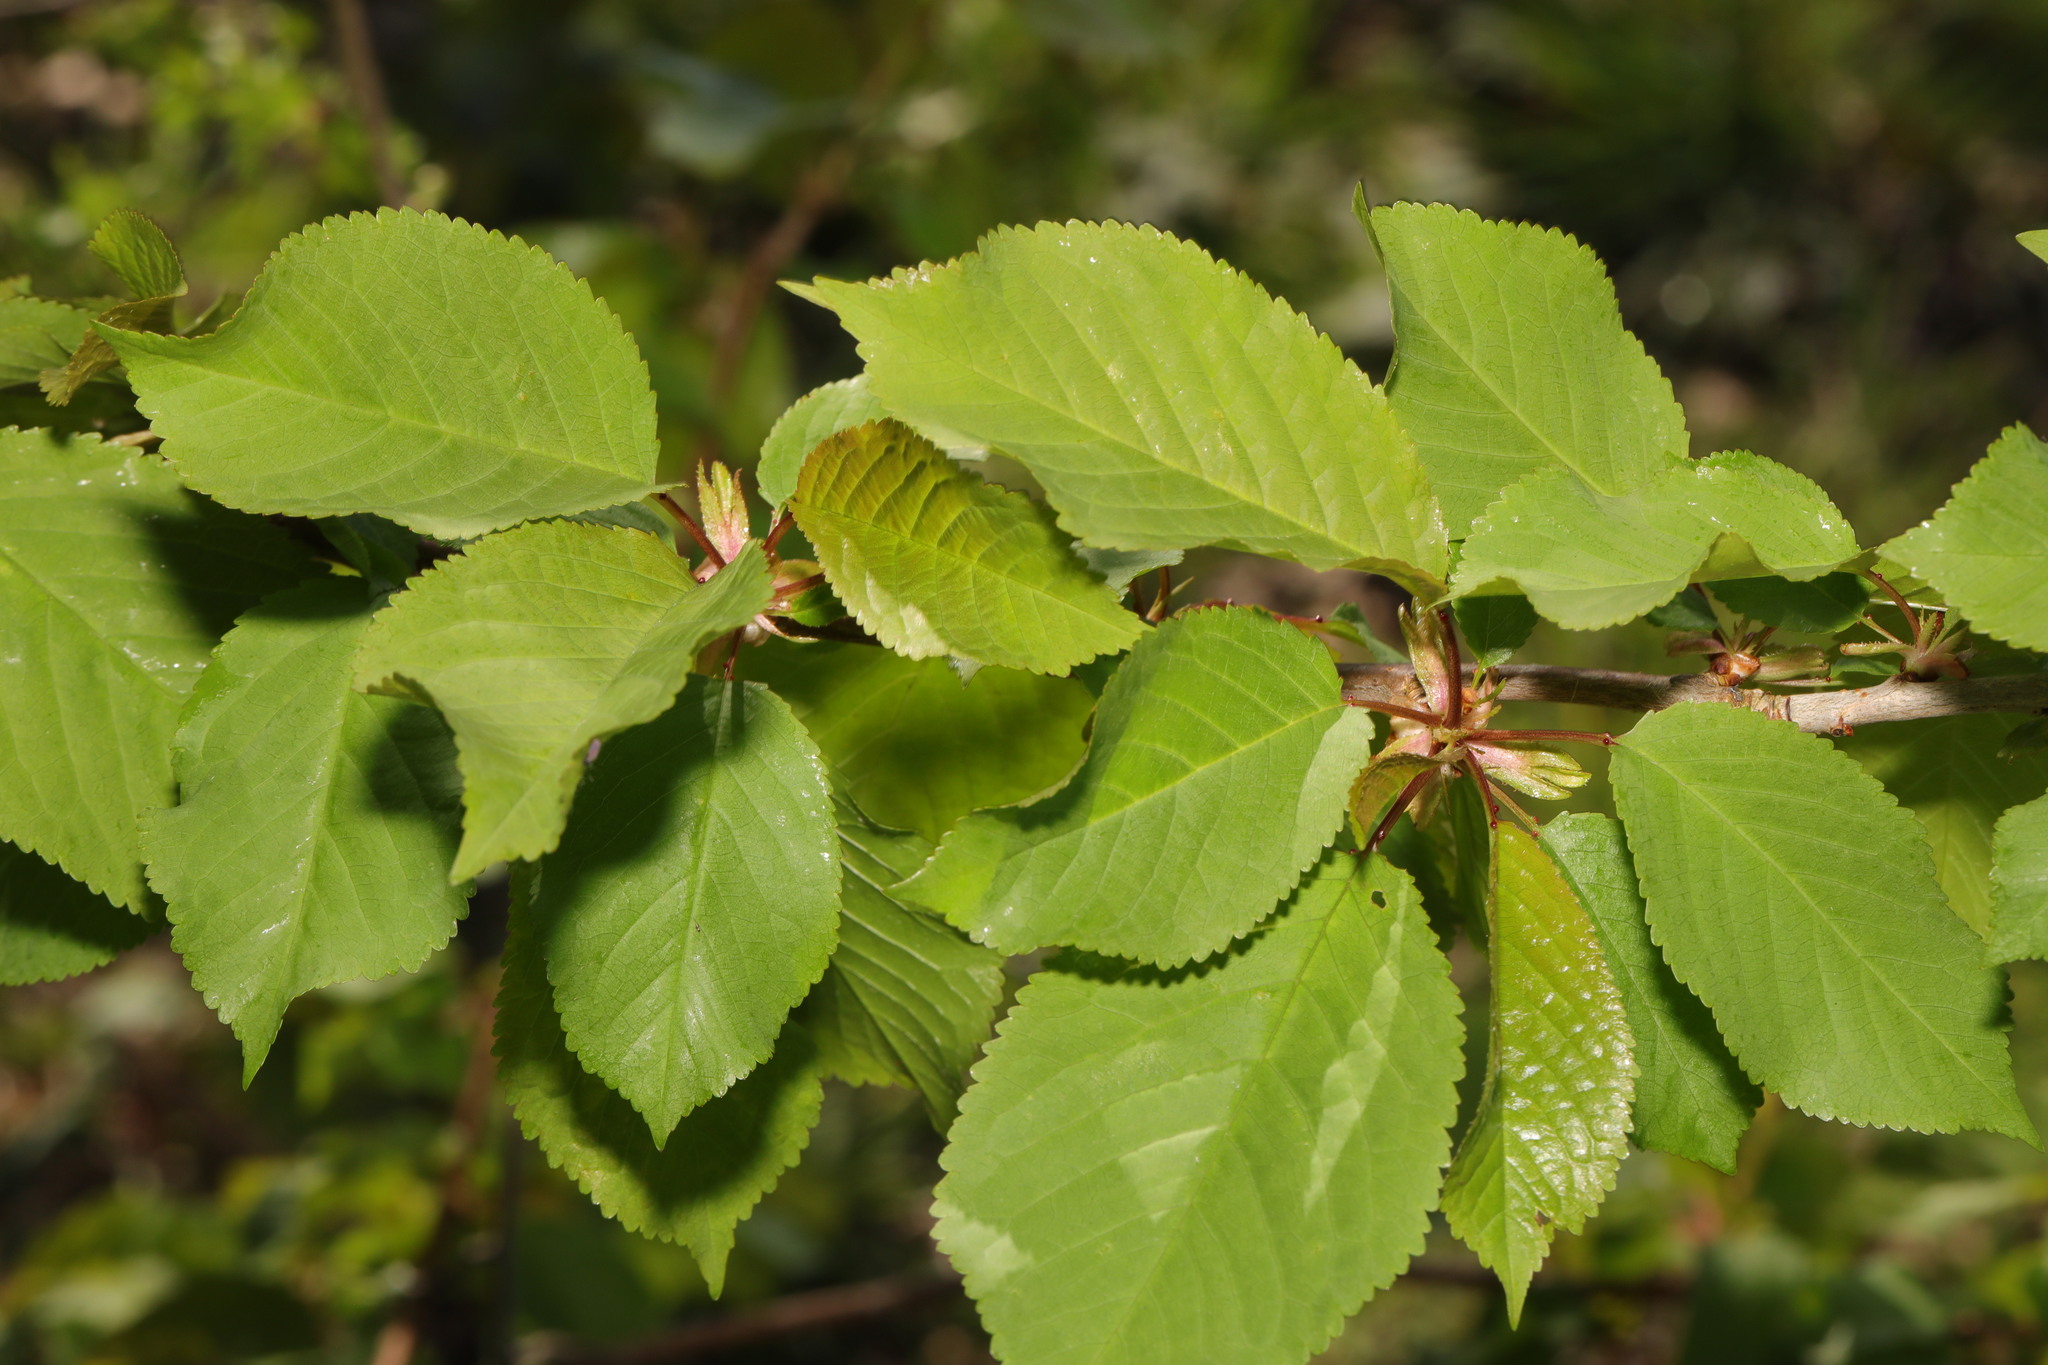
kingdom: Plantae
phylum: Tracheophyta
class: Magnoliopsida
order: Rosales
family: Rosaceae
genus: Prunus
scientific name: Prunus avium
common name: Sweet cherry
